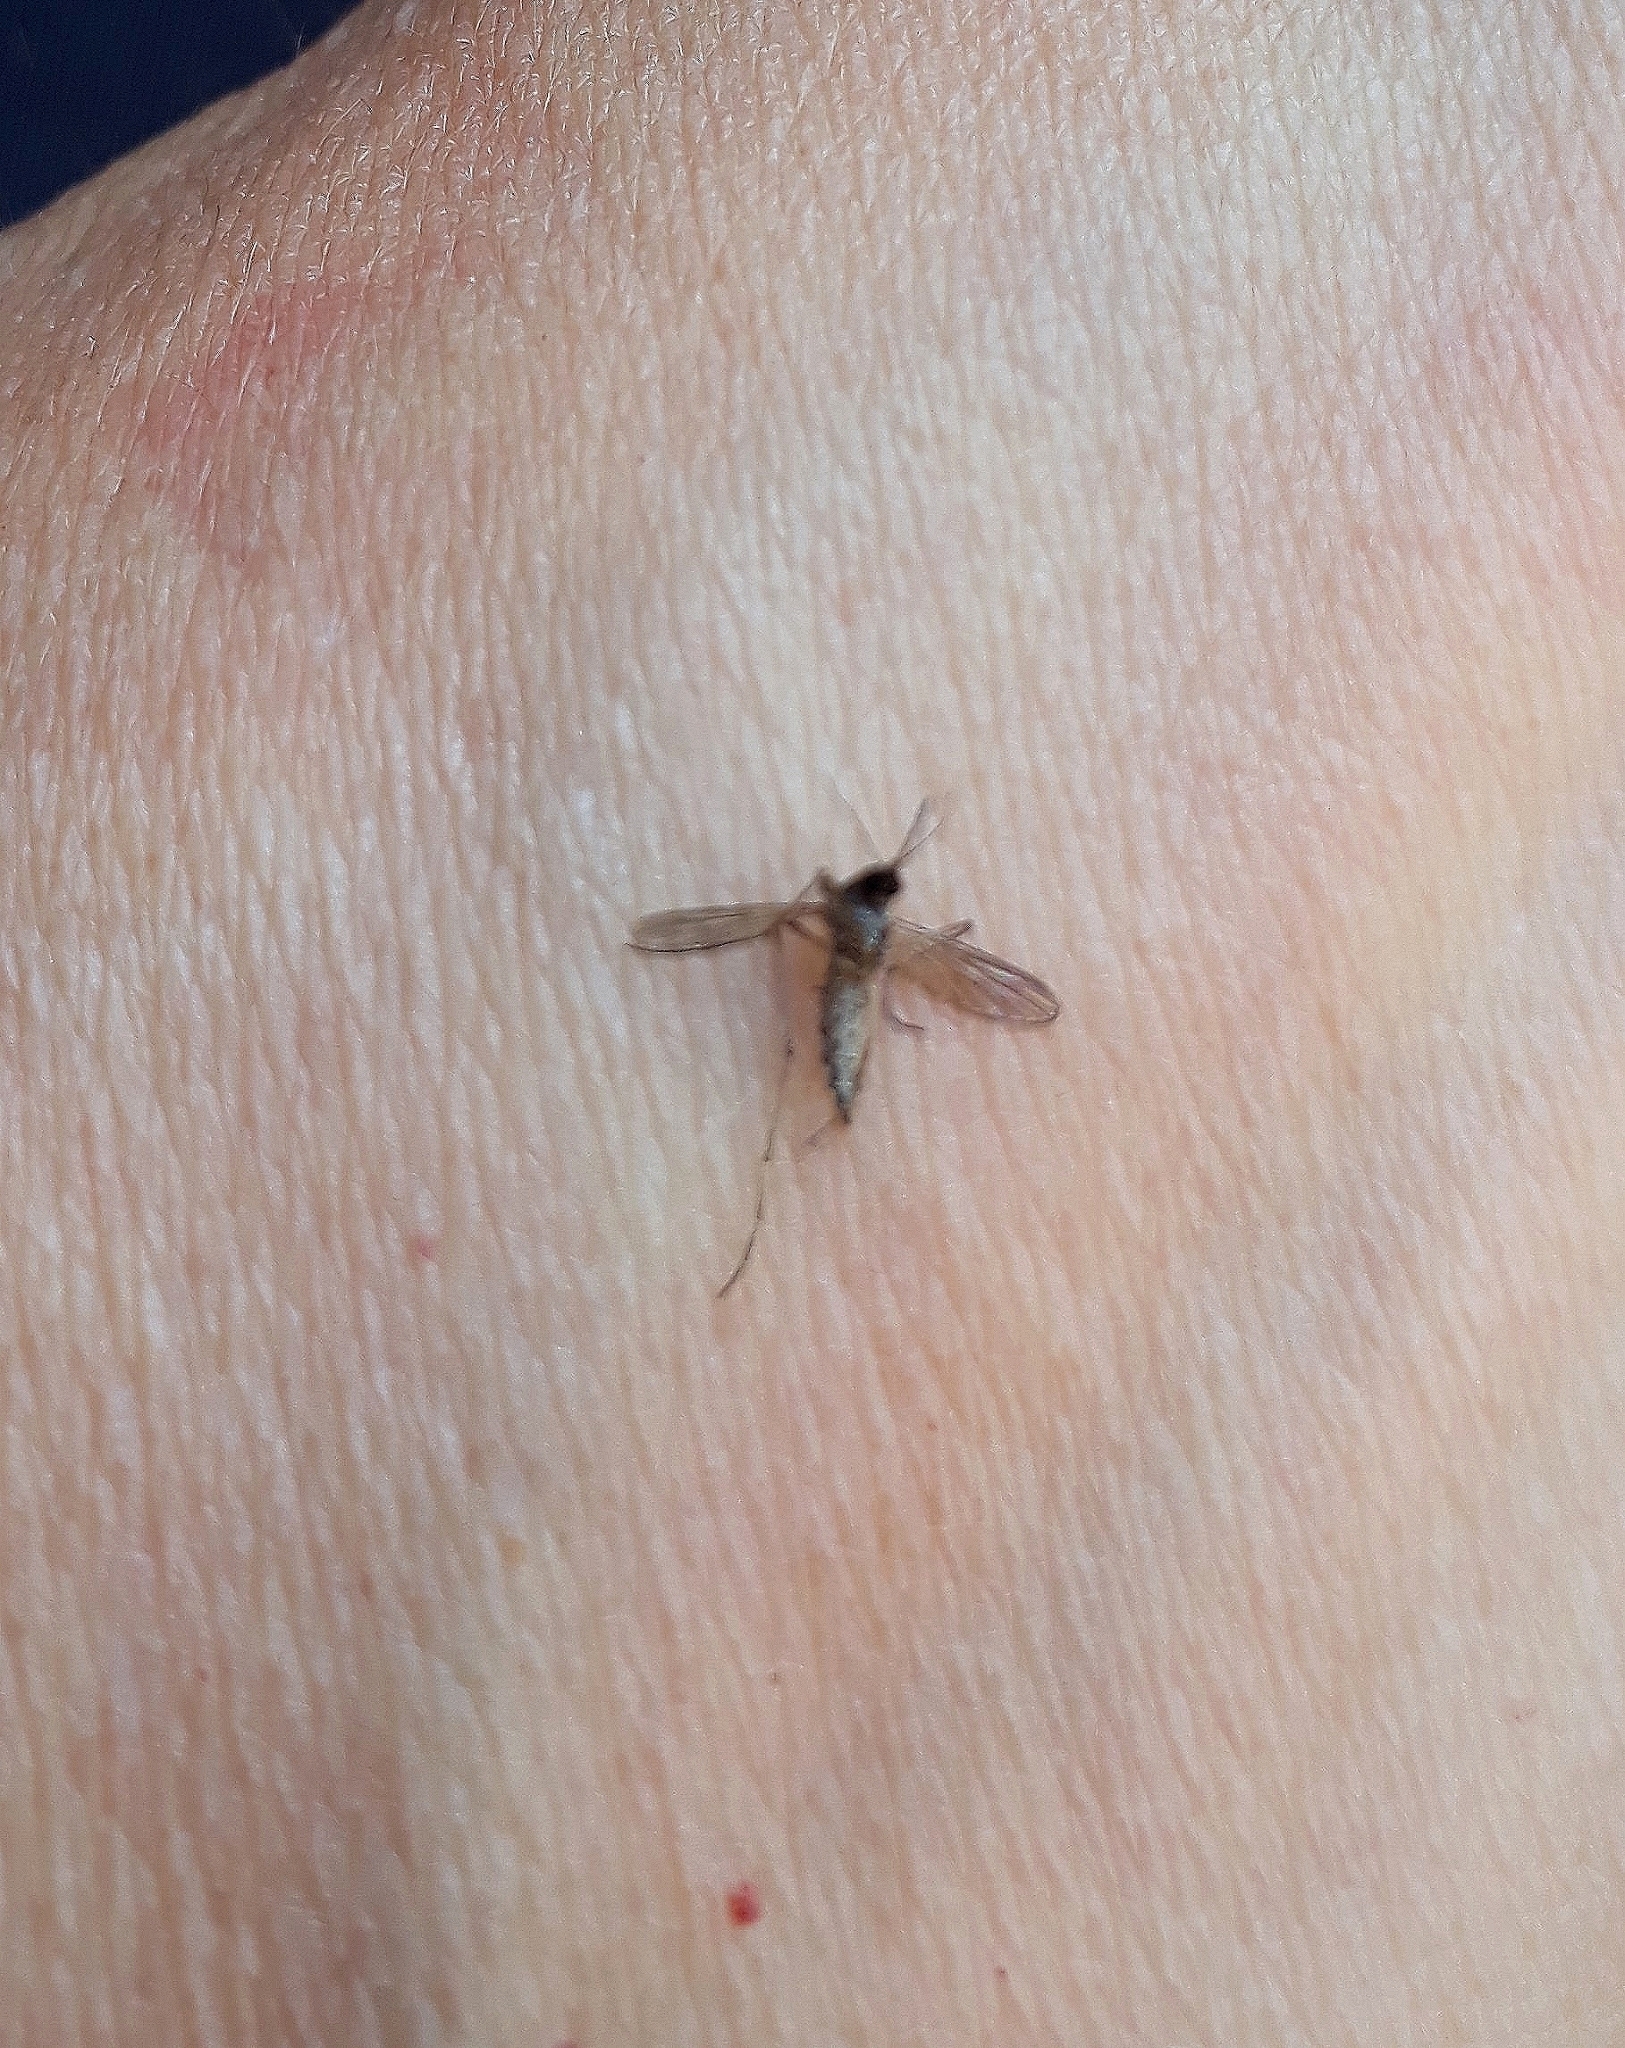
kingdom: Animalia
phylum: Arthropoda
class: Insecta
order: Diptera
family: Culicidae
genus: Aedes
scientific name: Aedes albifasciatus
